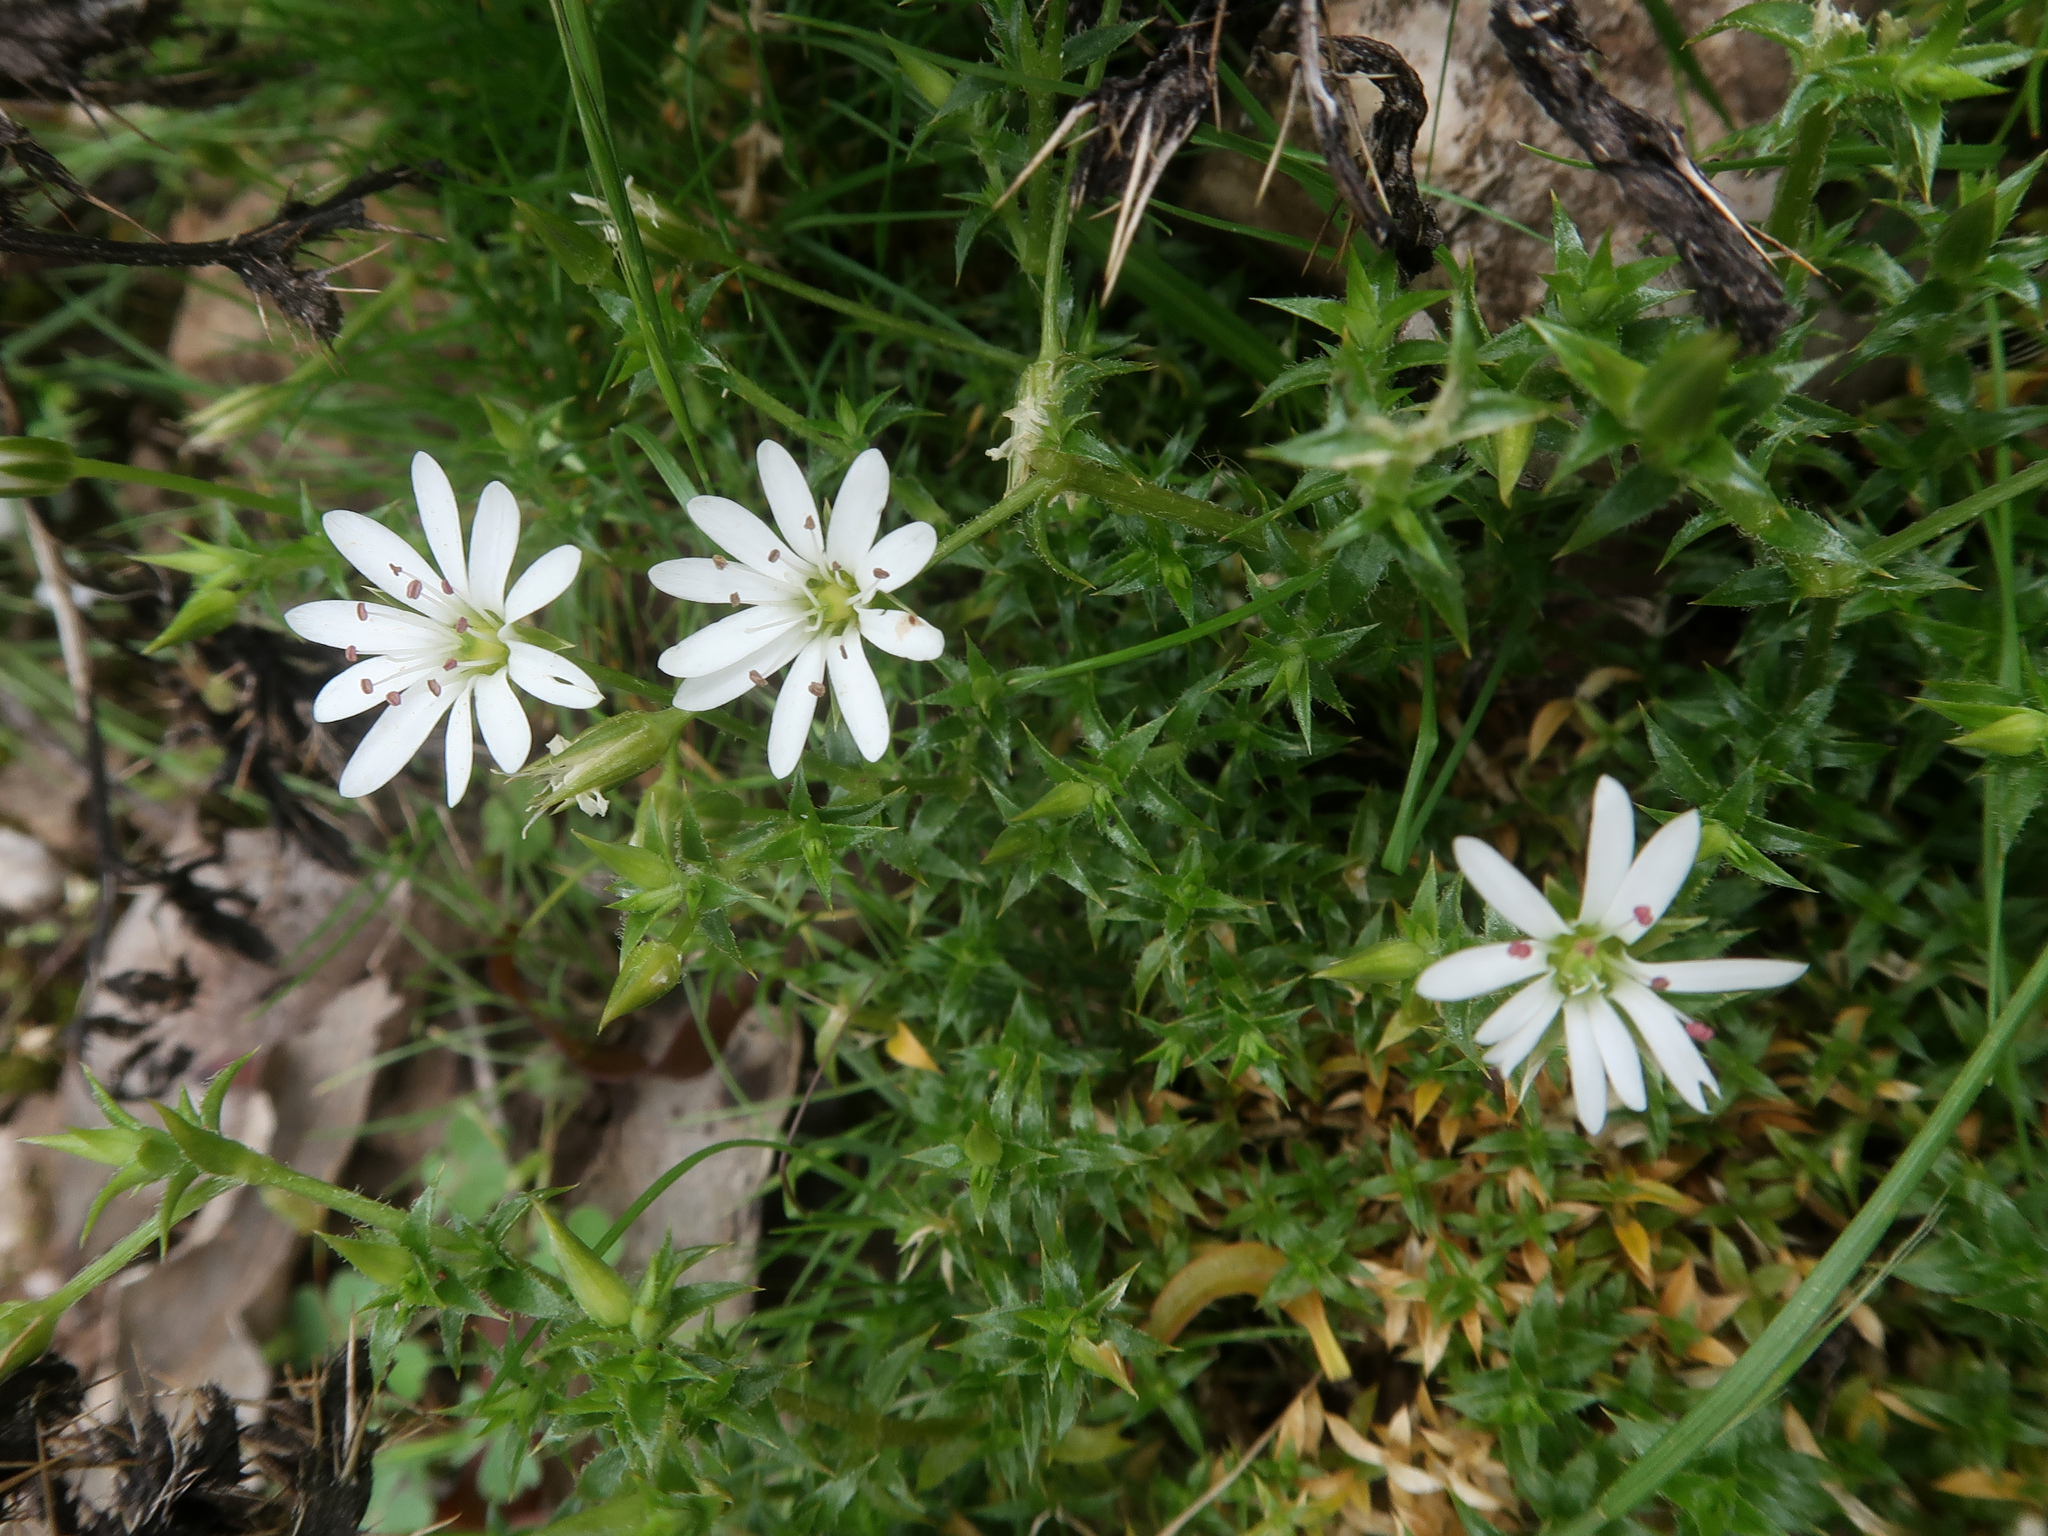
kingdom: Plantae
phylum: Tracheophyta
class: Magnoliopsida
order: Caryophyllales
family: Caryophyllaceae
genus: Stellaria
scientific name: Stellaria pungens
